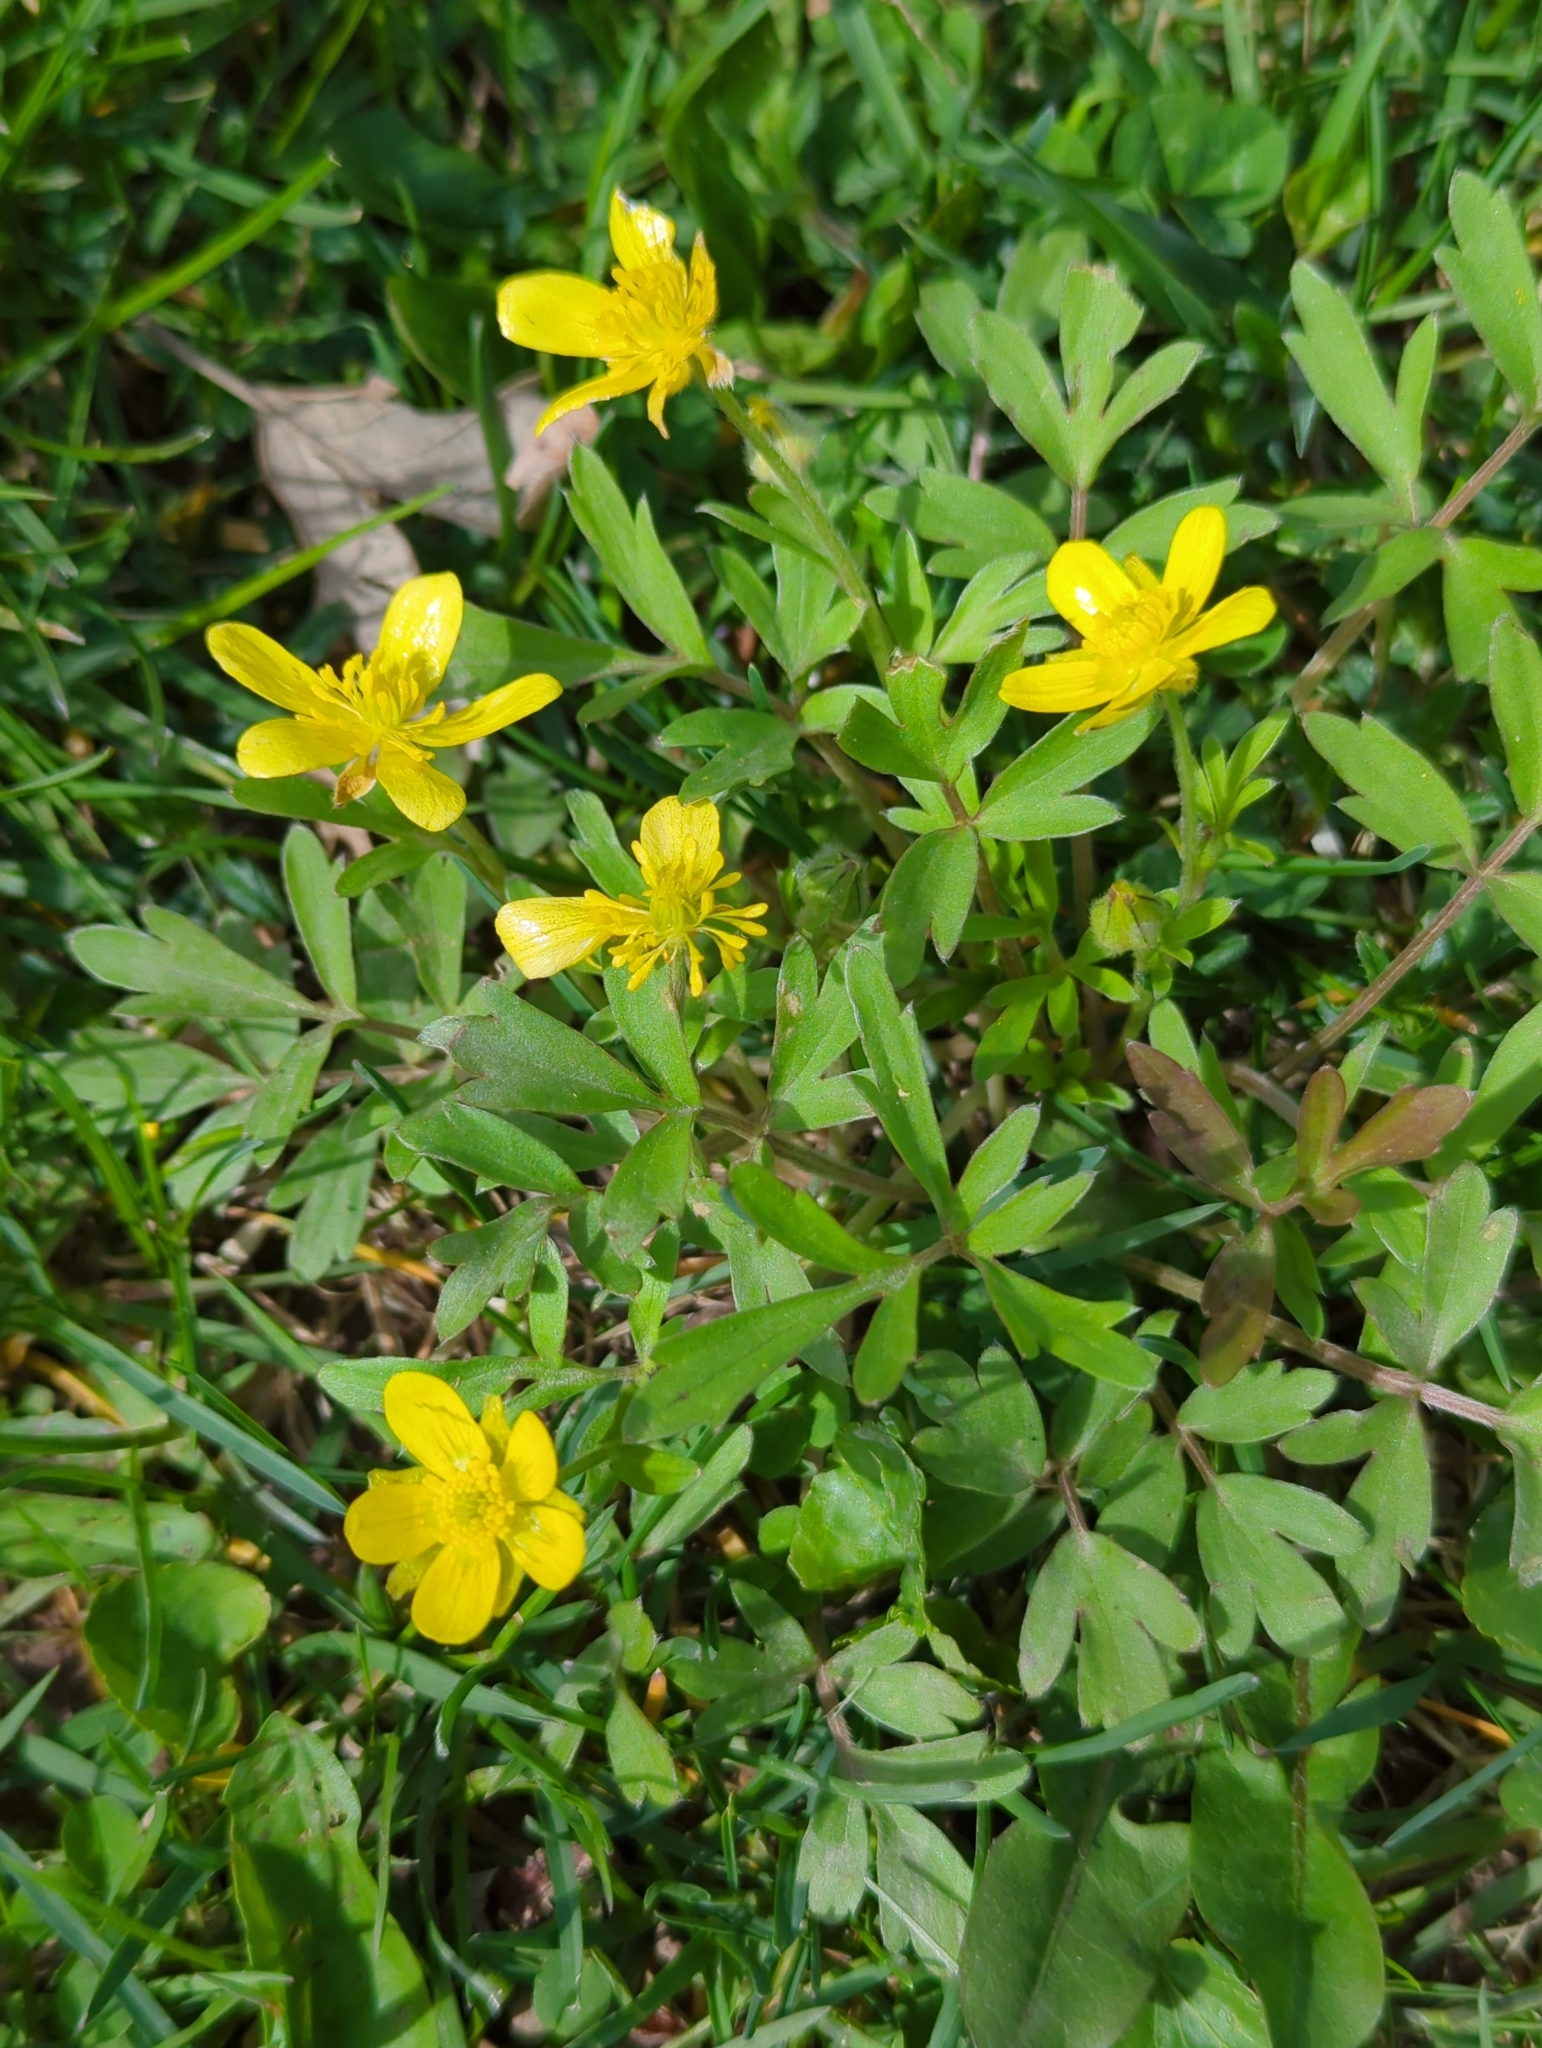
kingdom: Plantae
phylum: Tracheophyta
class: Magnoliopsida
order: Ranunculales
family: Ranunculaceae
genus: Ranunculus
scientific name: Ranunculus fascicularis
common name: Early buttercup
